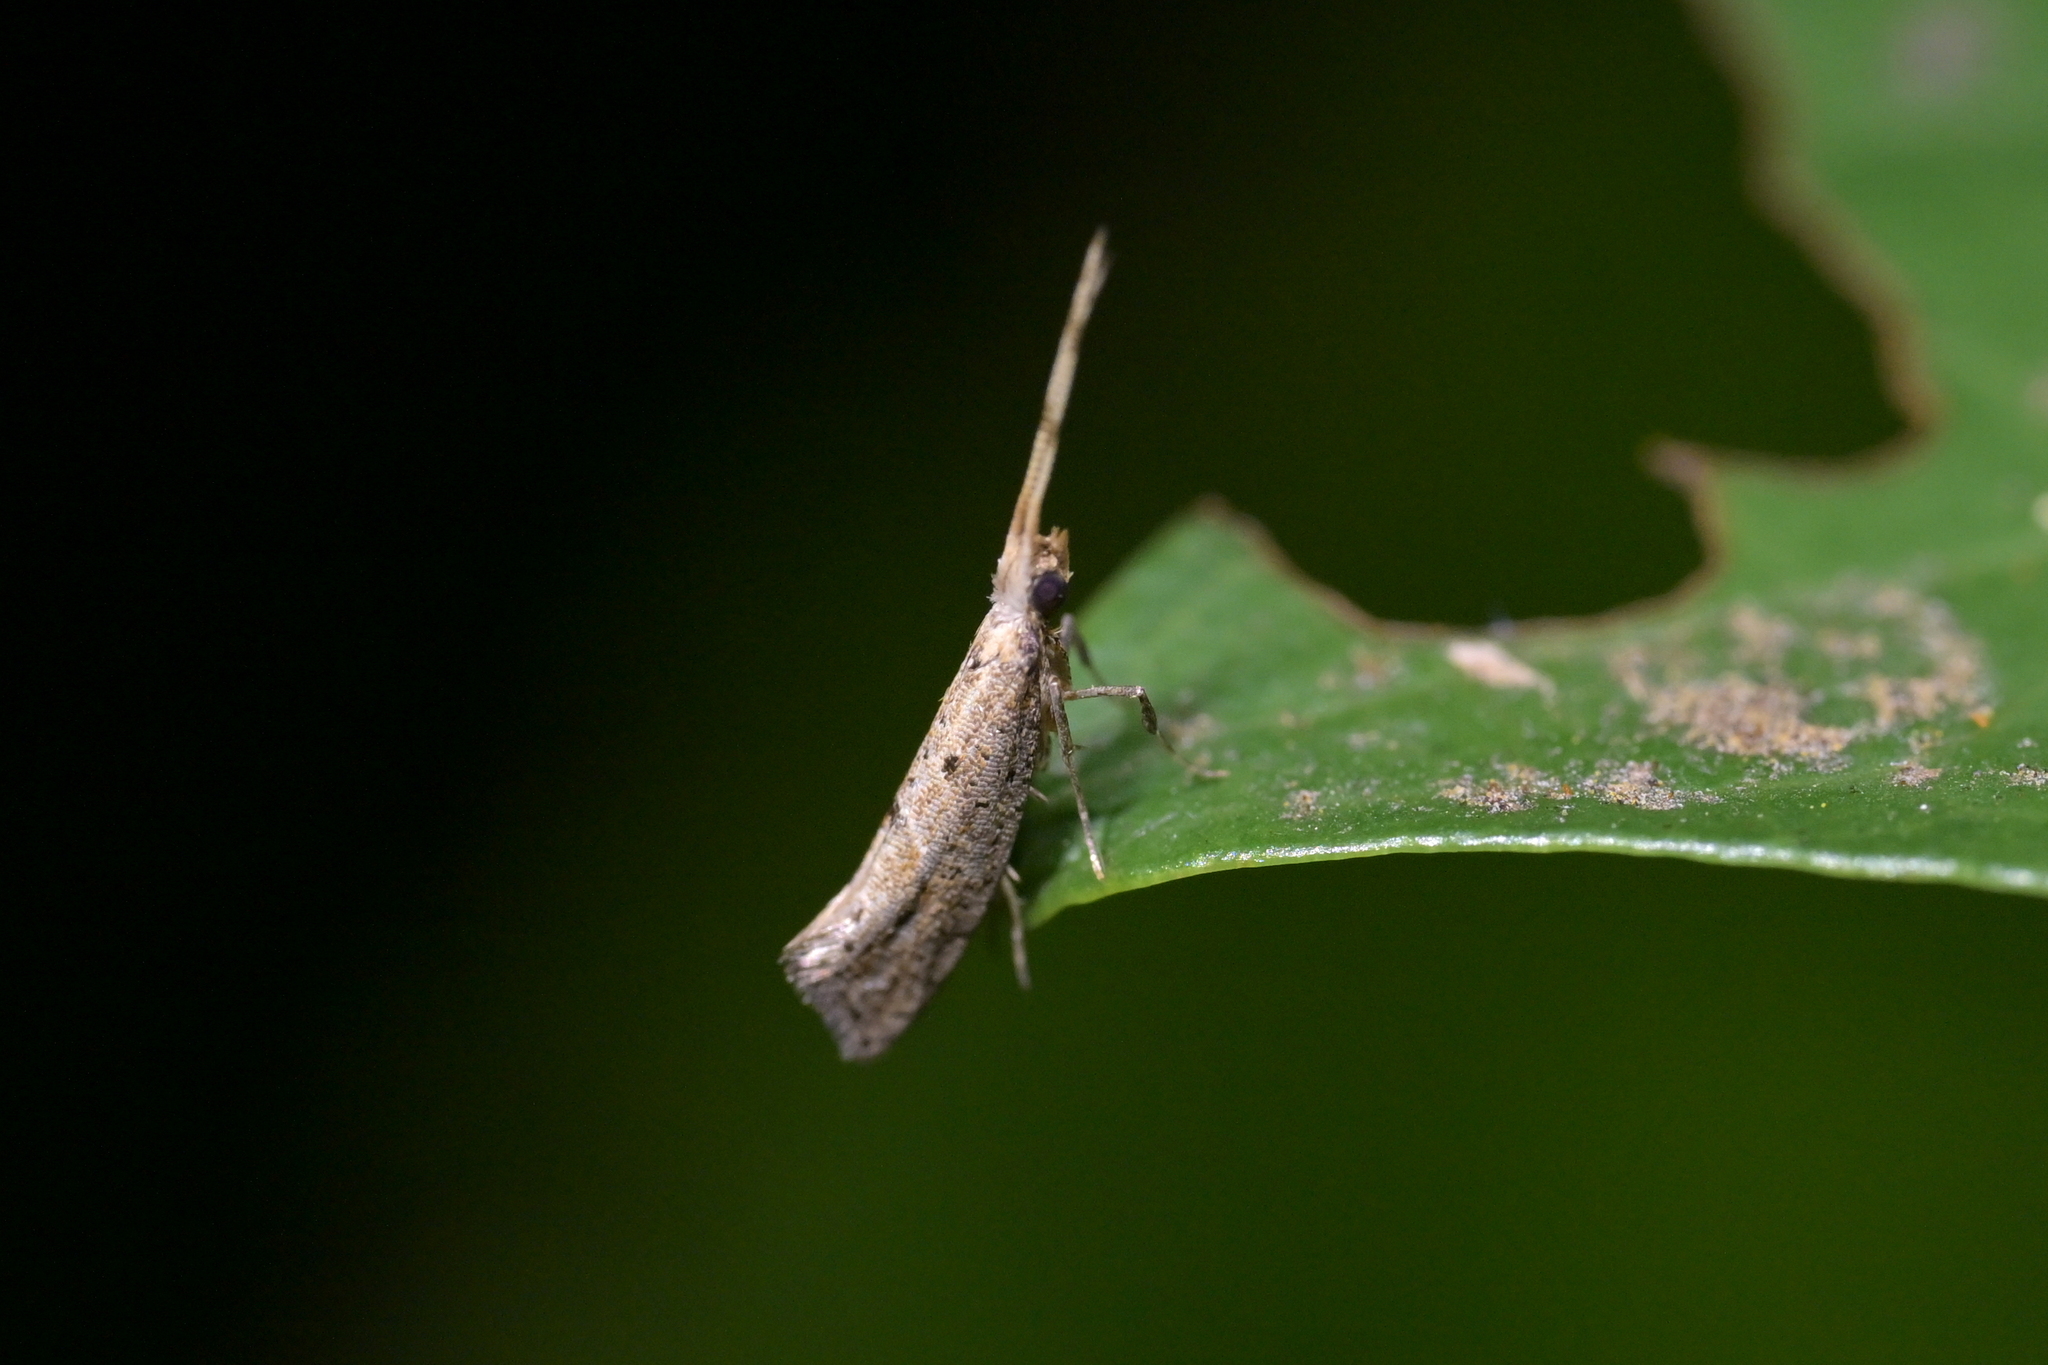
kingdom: Animalia
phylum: Arthropoda
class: Insecta
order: Lepidoptera
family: Plutellidae
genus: Leuroperna
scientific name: Leuroperna sera
